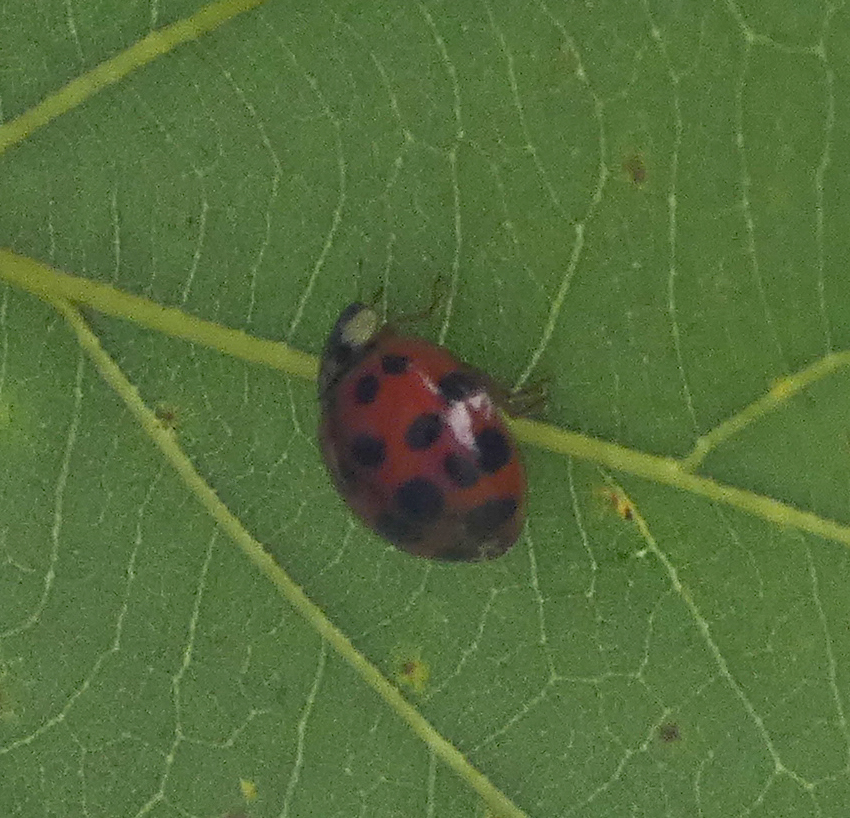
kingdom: Animalia
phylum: Arthropoda
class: Insecta
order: Coleoptera
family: Coccinellidae
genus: Harmonia
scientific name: Harmonia axyridis
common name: Harlequin ladybird
